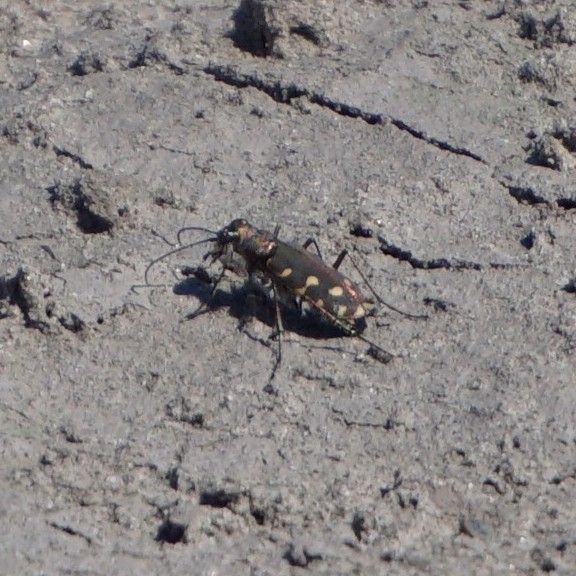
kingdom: Animalia
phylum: Arthropoda
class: Insecta
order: Coleoptera
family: Carabidae
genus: Cicindela
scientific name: Cicindela littoralis
